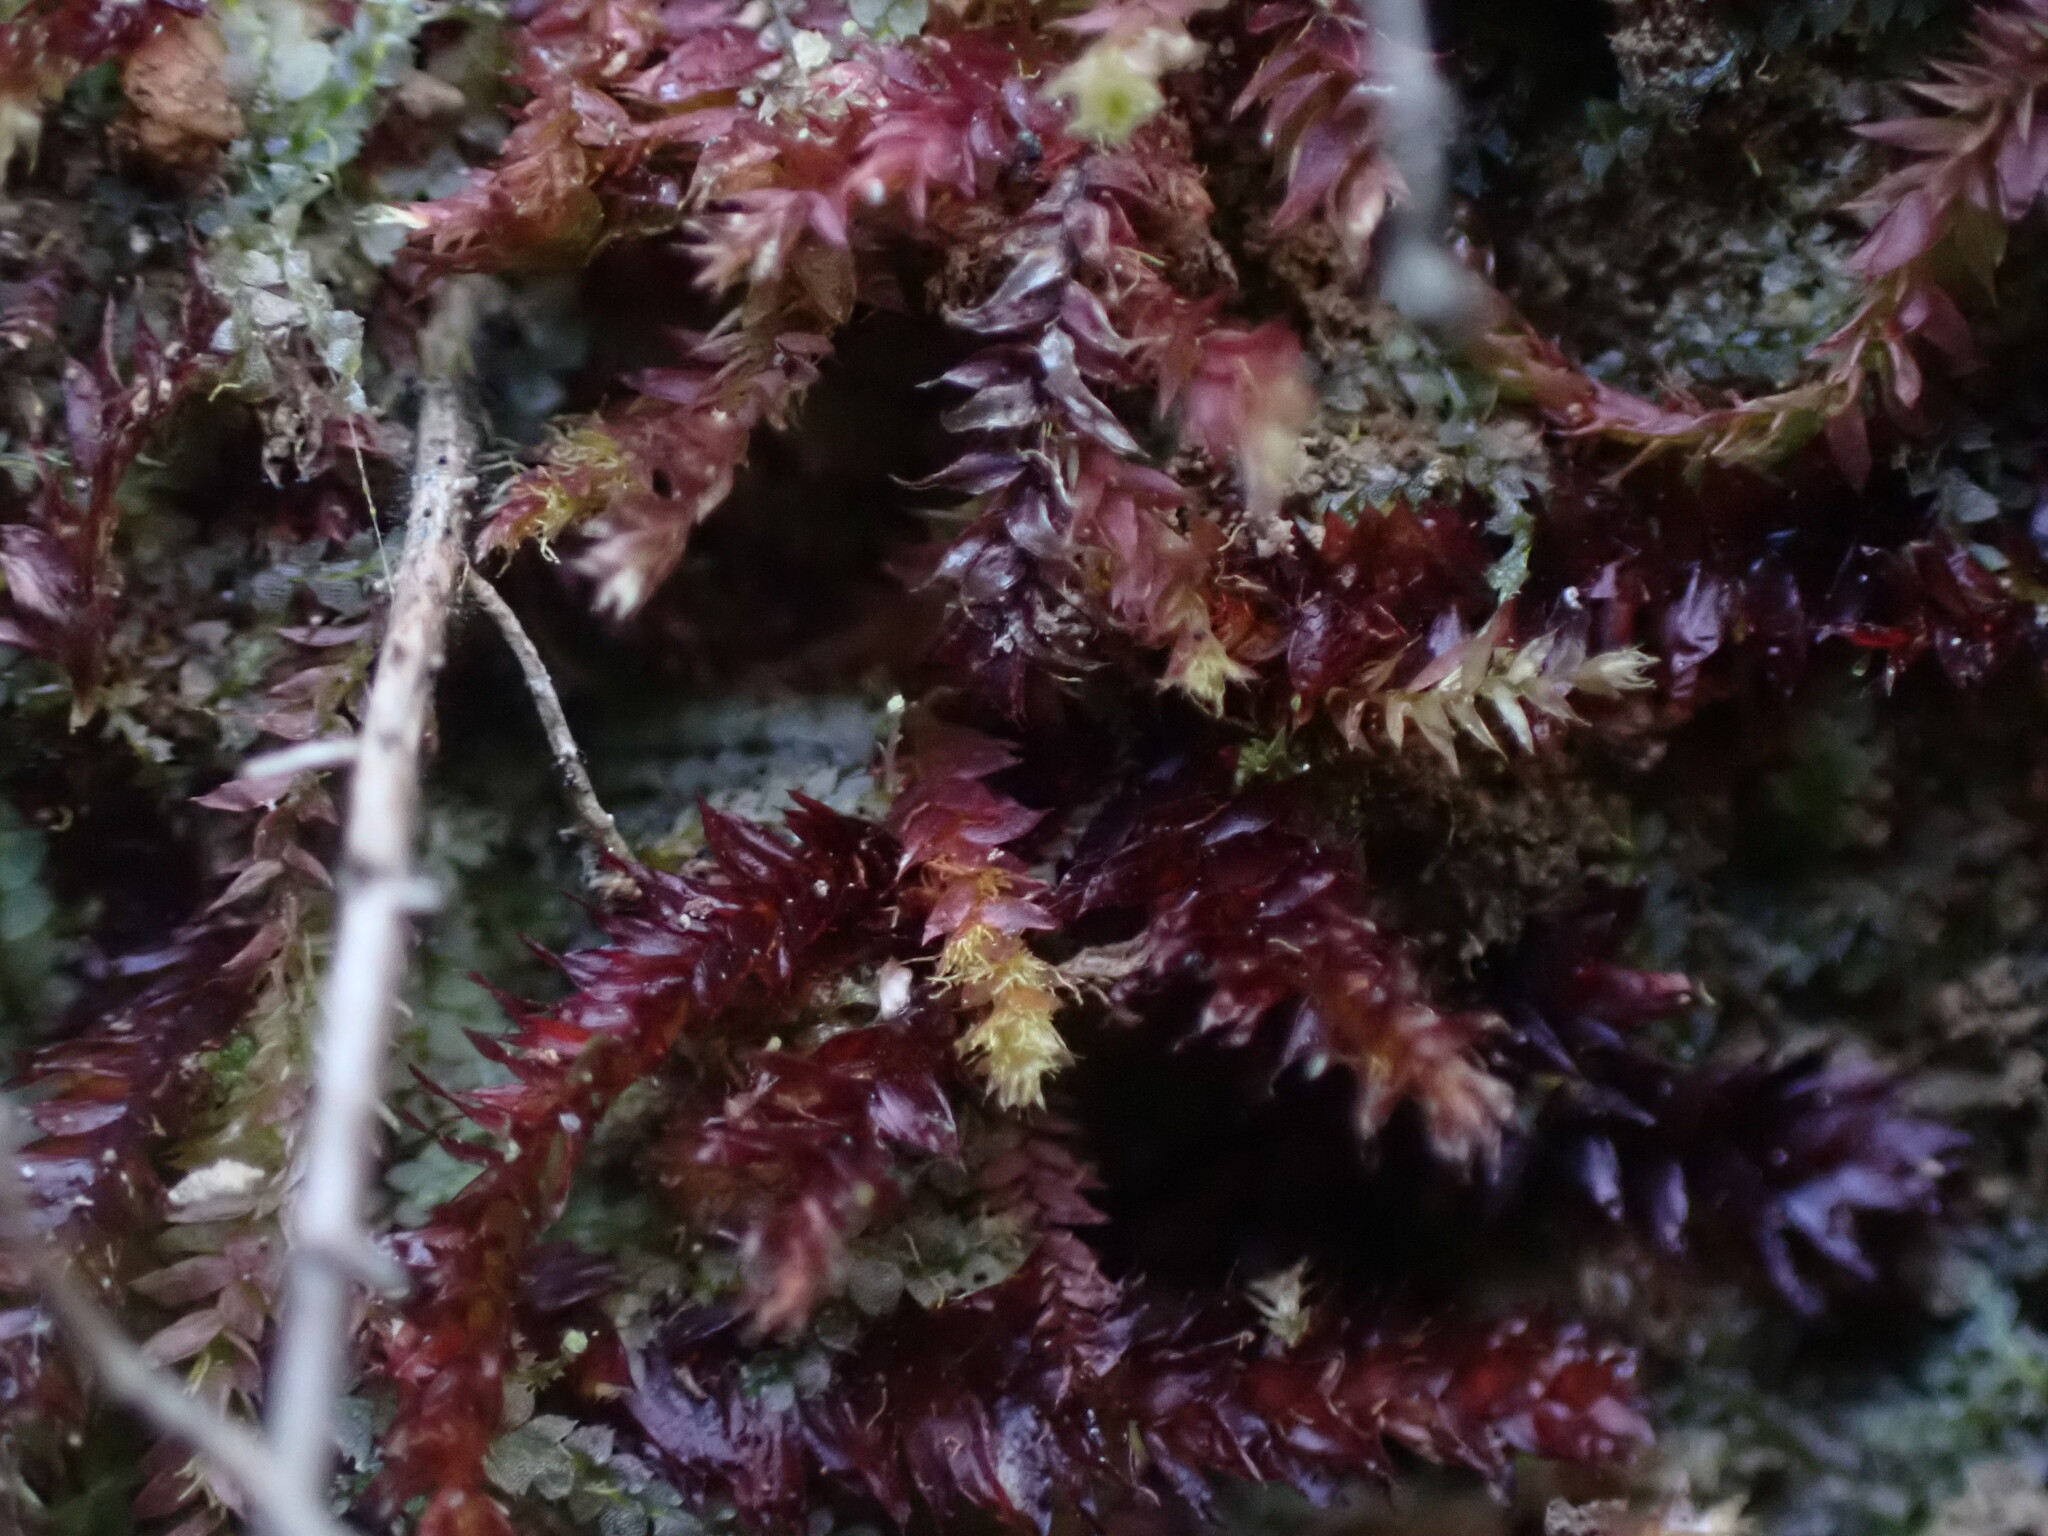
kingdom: Plantae
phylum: Bryophyta
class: Bryopsida
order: Hypnales
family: Plagiotheciaceae
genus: Pseudotaxiphyllum
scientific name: Pseudotaxiphyllum pohliaecarpum
